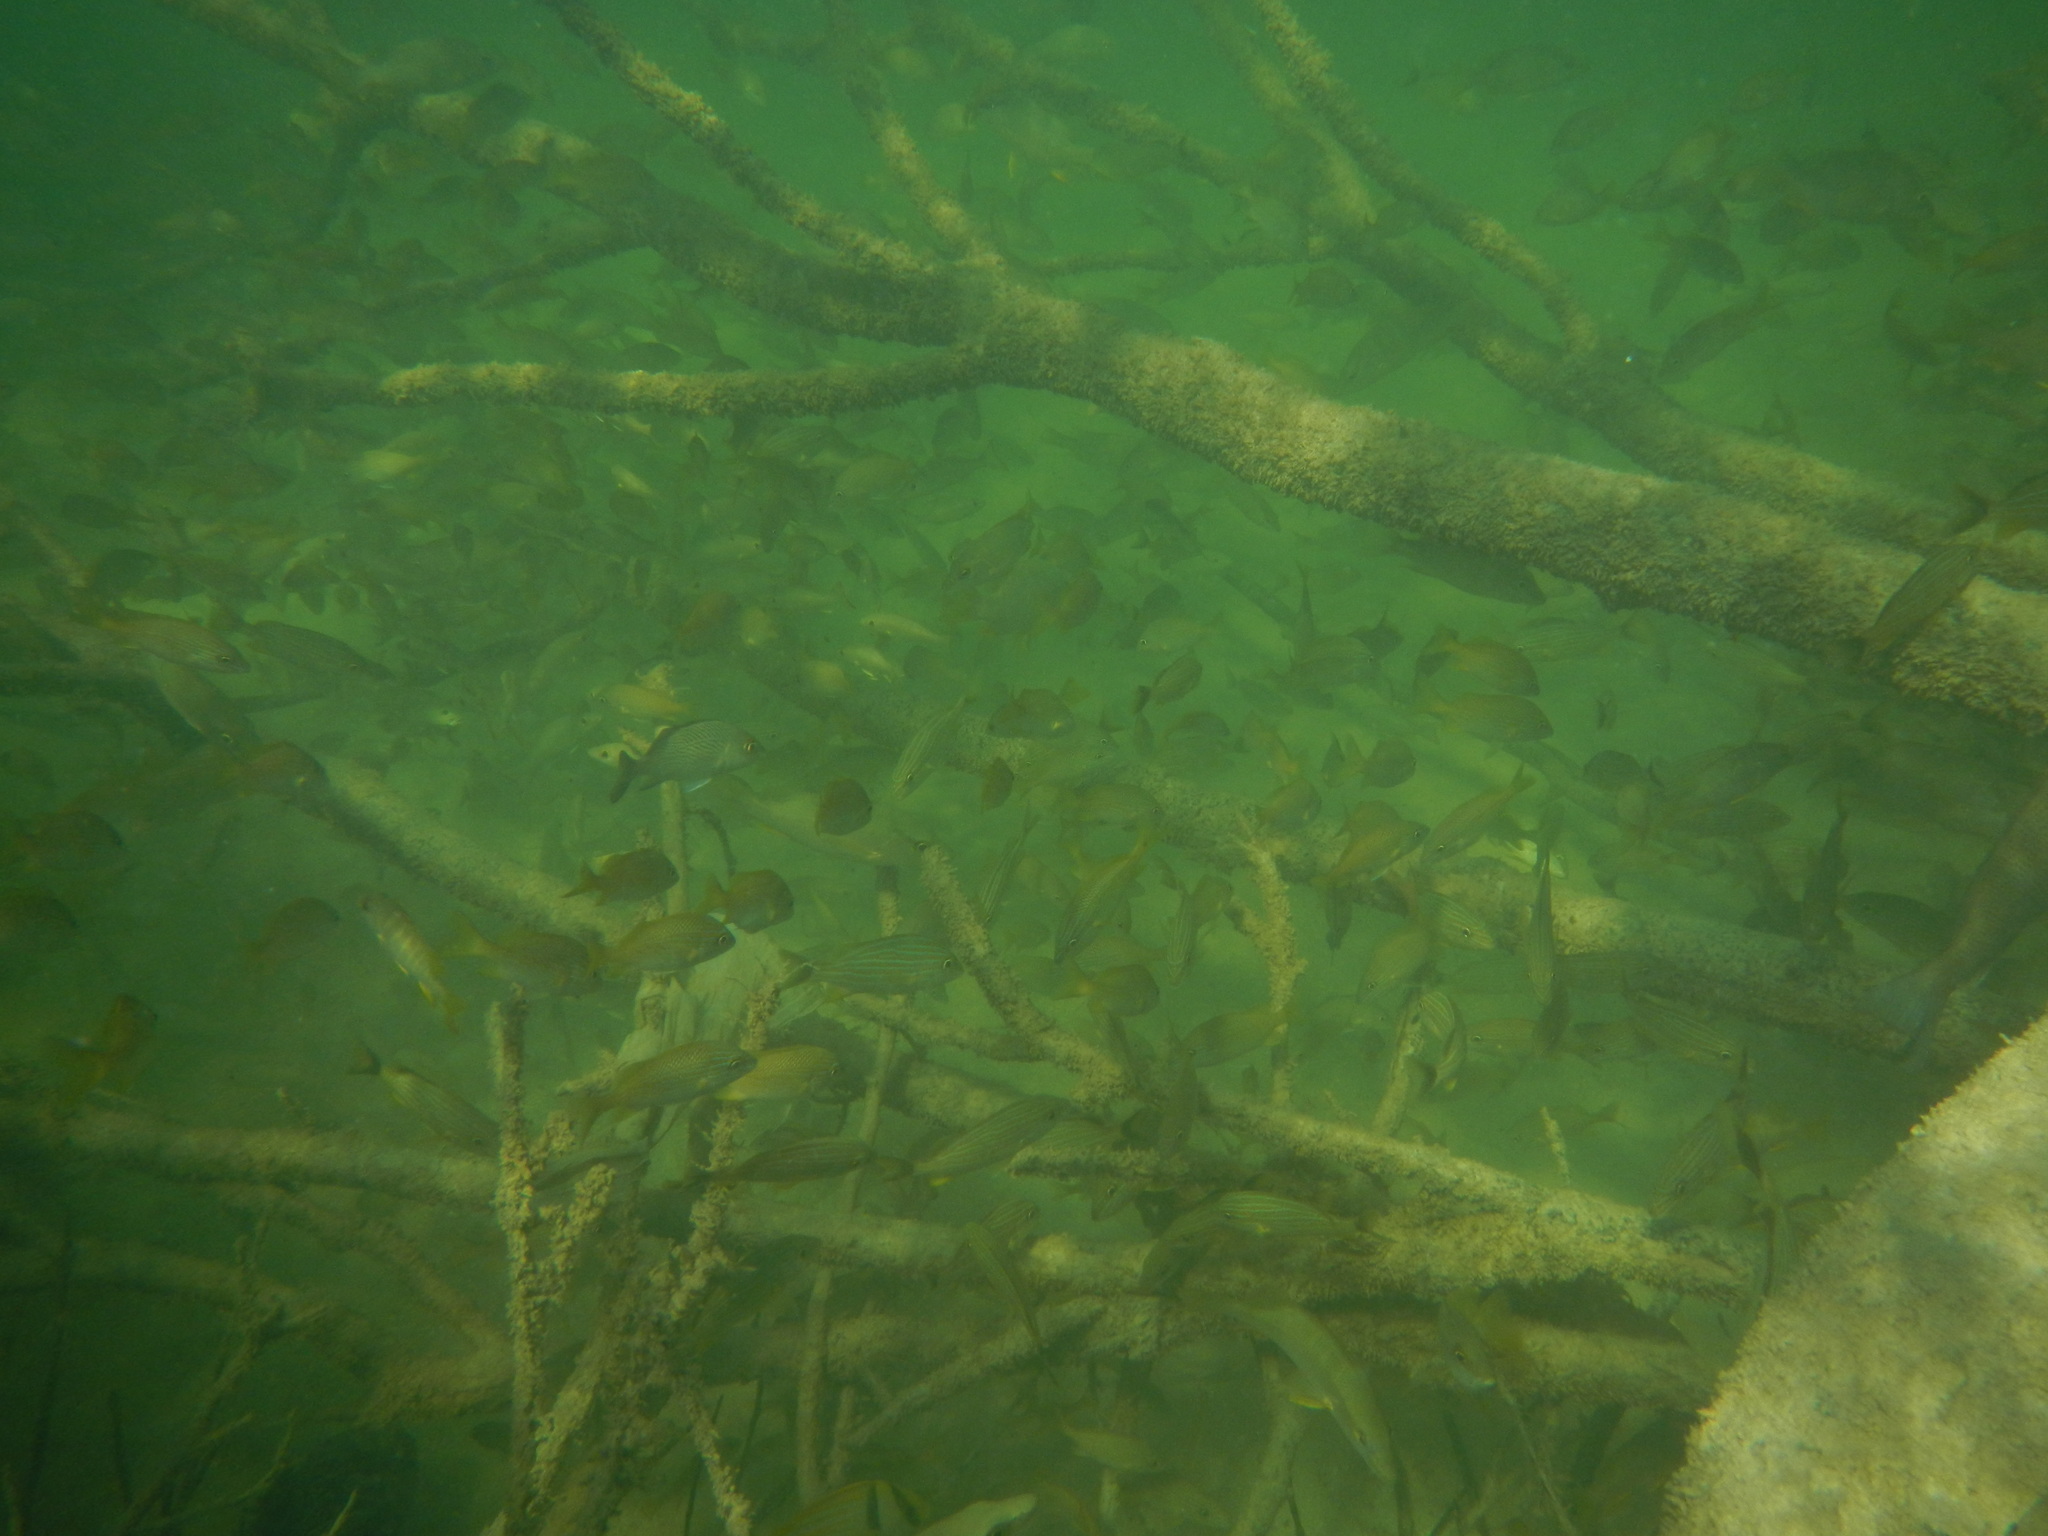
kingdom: Animalia
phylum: Chordata
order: Perciformes
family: Haemulidae
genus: Haemulon
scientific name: Haemulon plumierii
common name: White grunt
